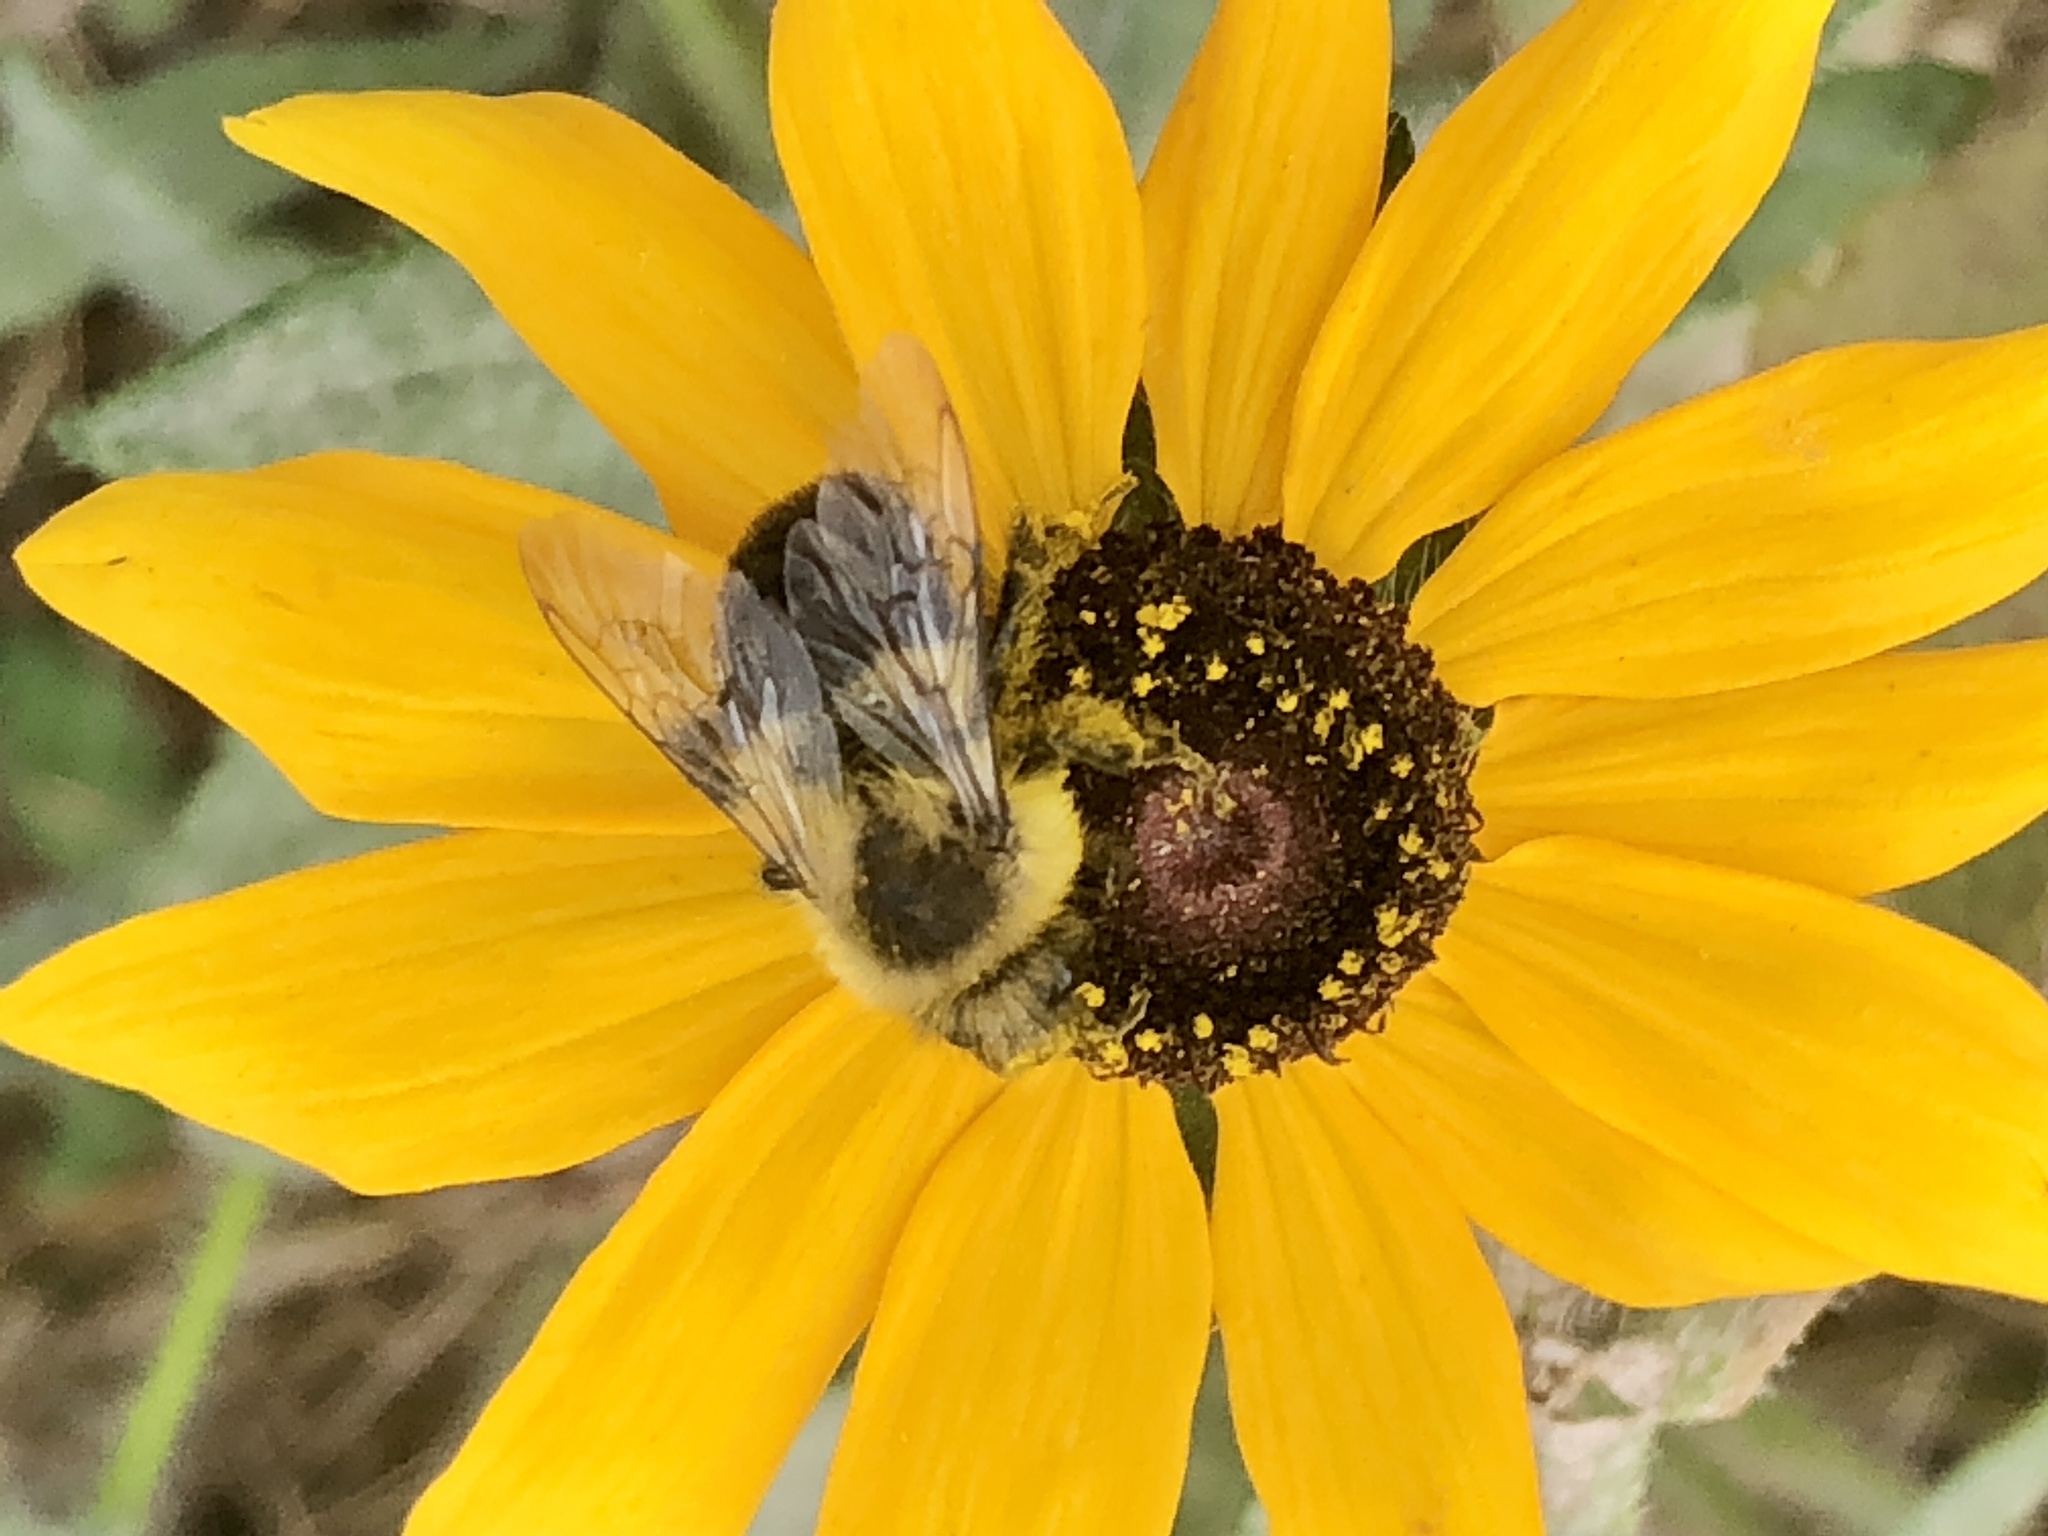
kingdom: Animalia
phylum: Arthropoda
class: Insecta
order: Hymenoptera
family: Apidae
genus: Bombus
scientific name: Bombus impatiens
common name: Common eastern bumble bee
